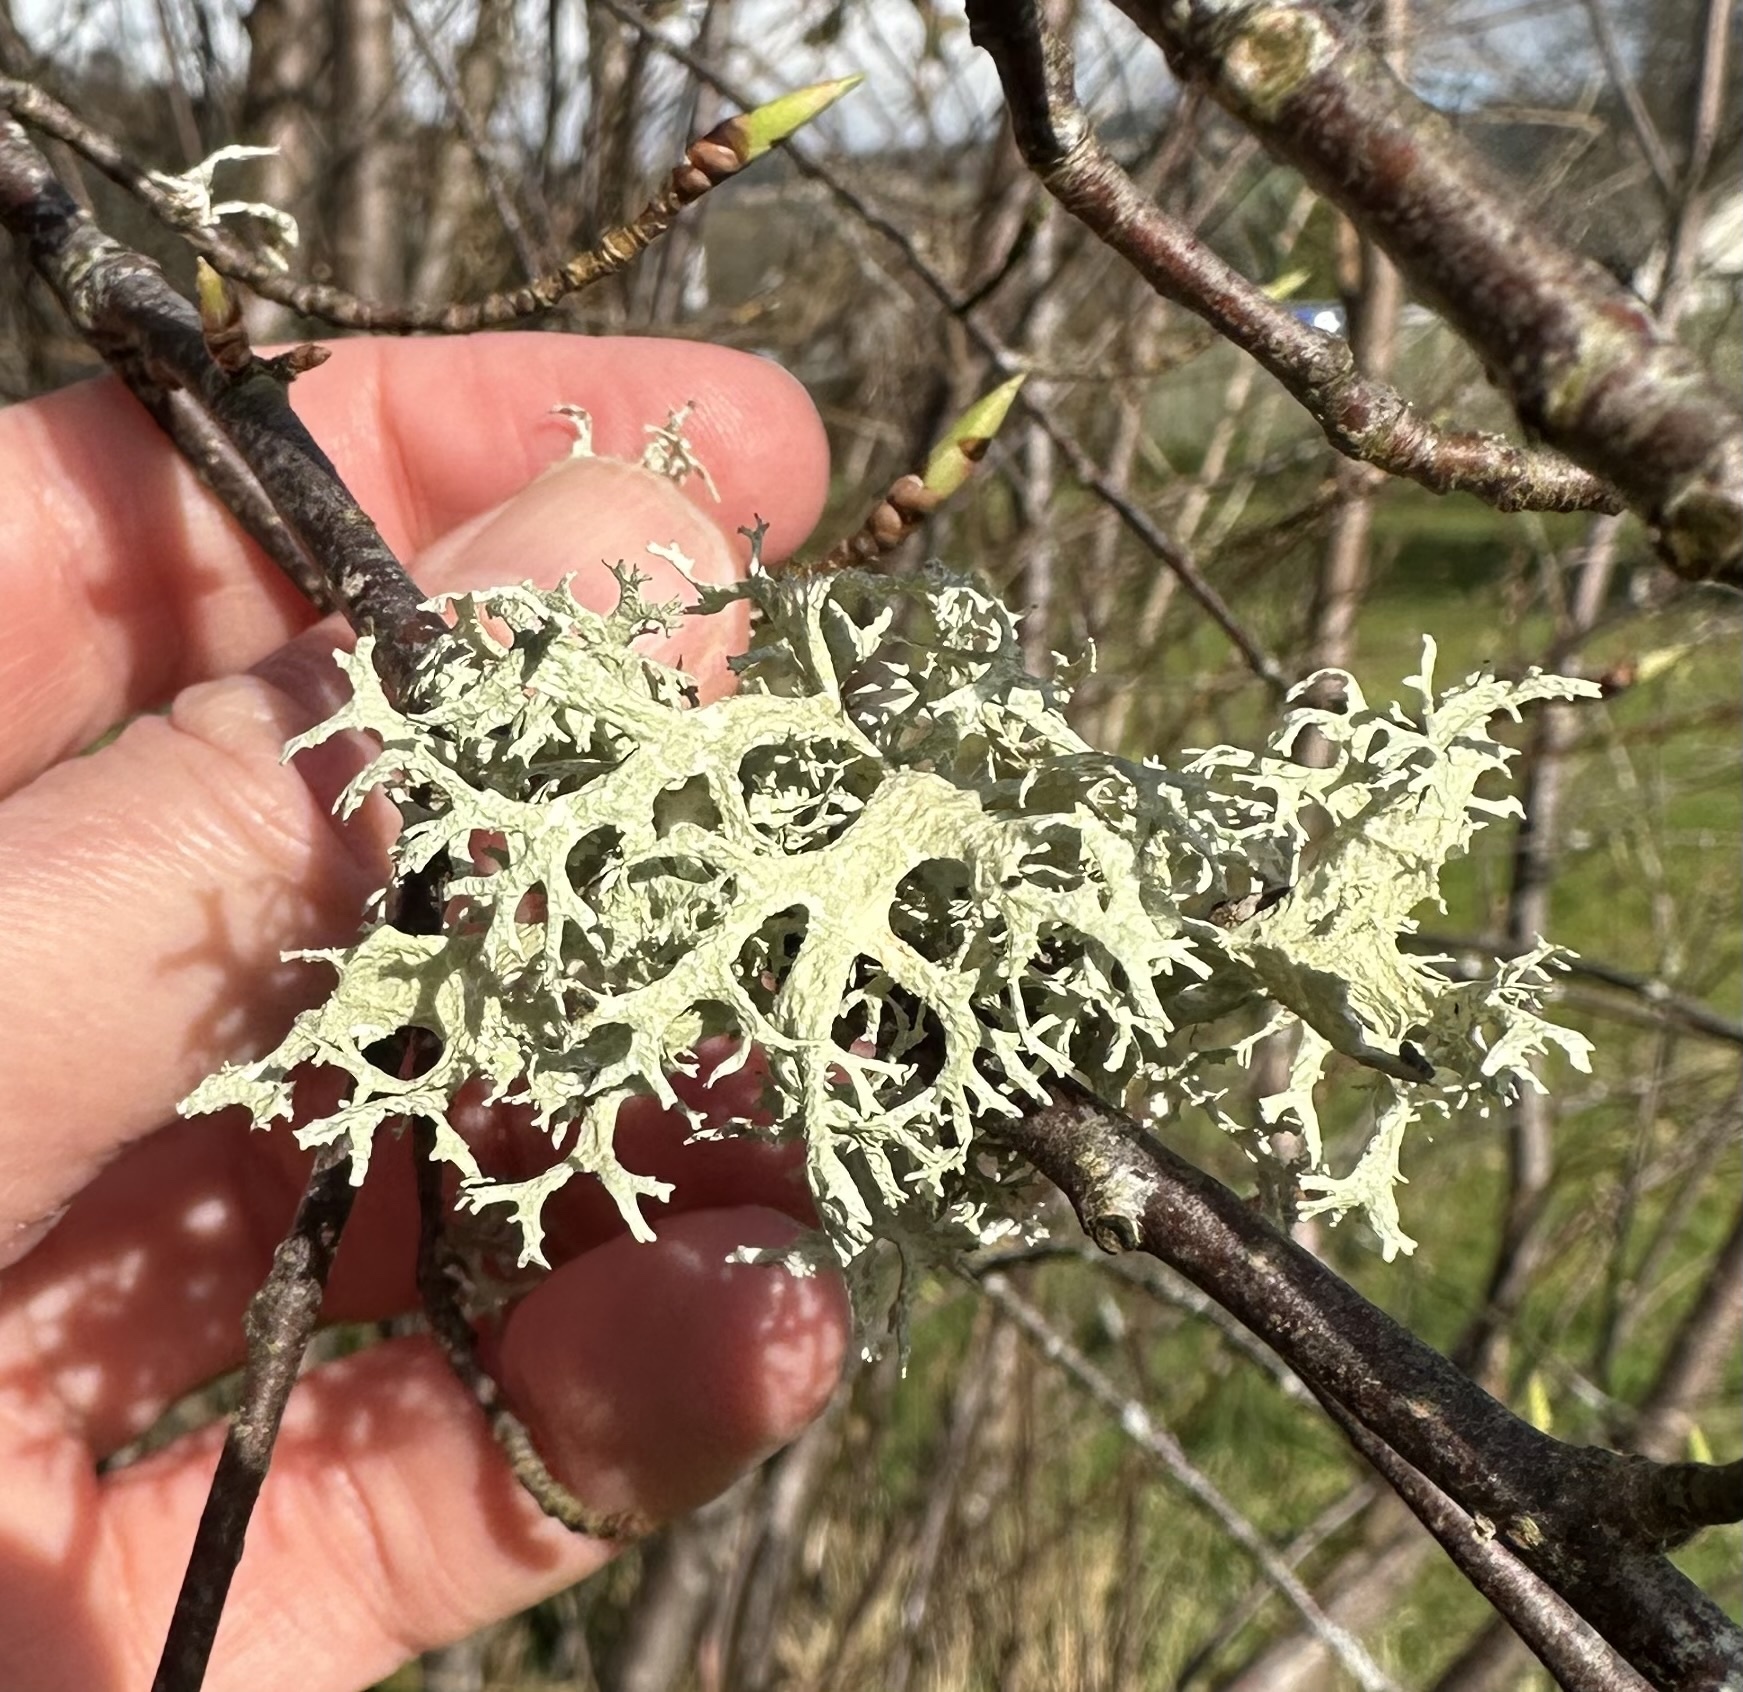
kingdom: Fungi
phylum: Ascomycota
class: Lecanoromycetes
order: Lecanorales
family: Parmeliaceae
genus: Evernia
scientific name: Evernia prunastri
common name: Oak moss
